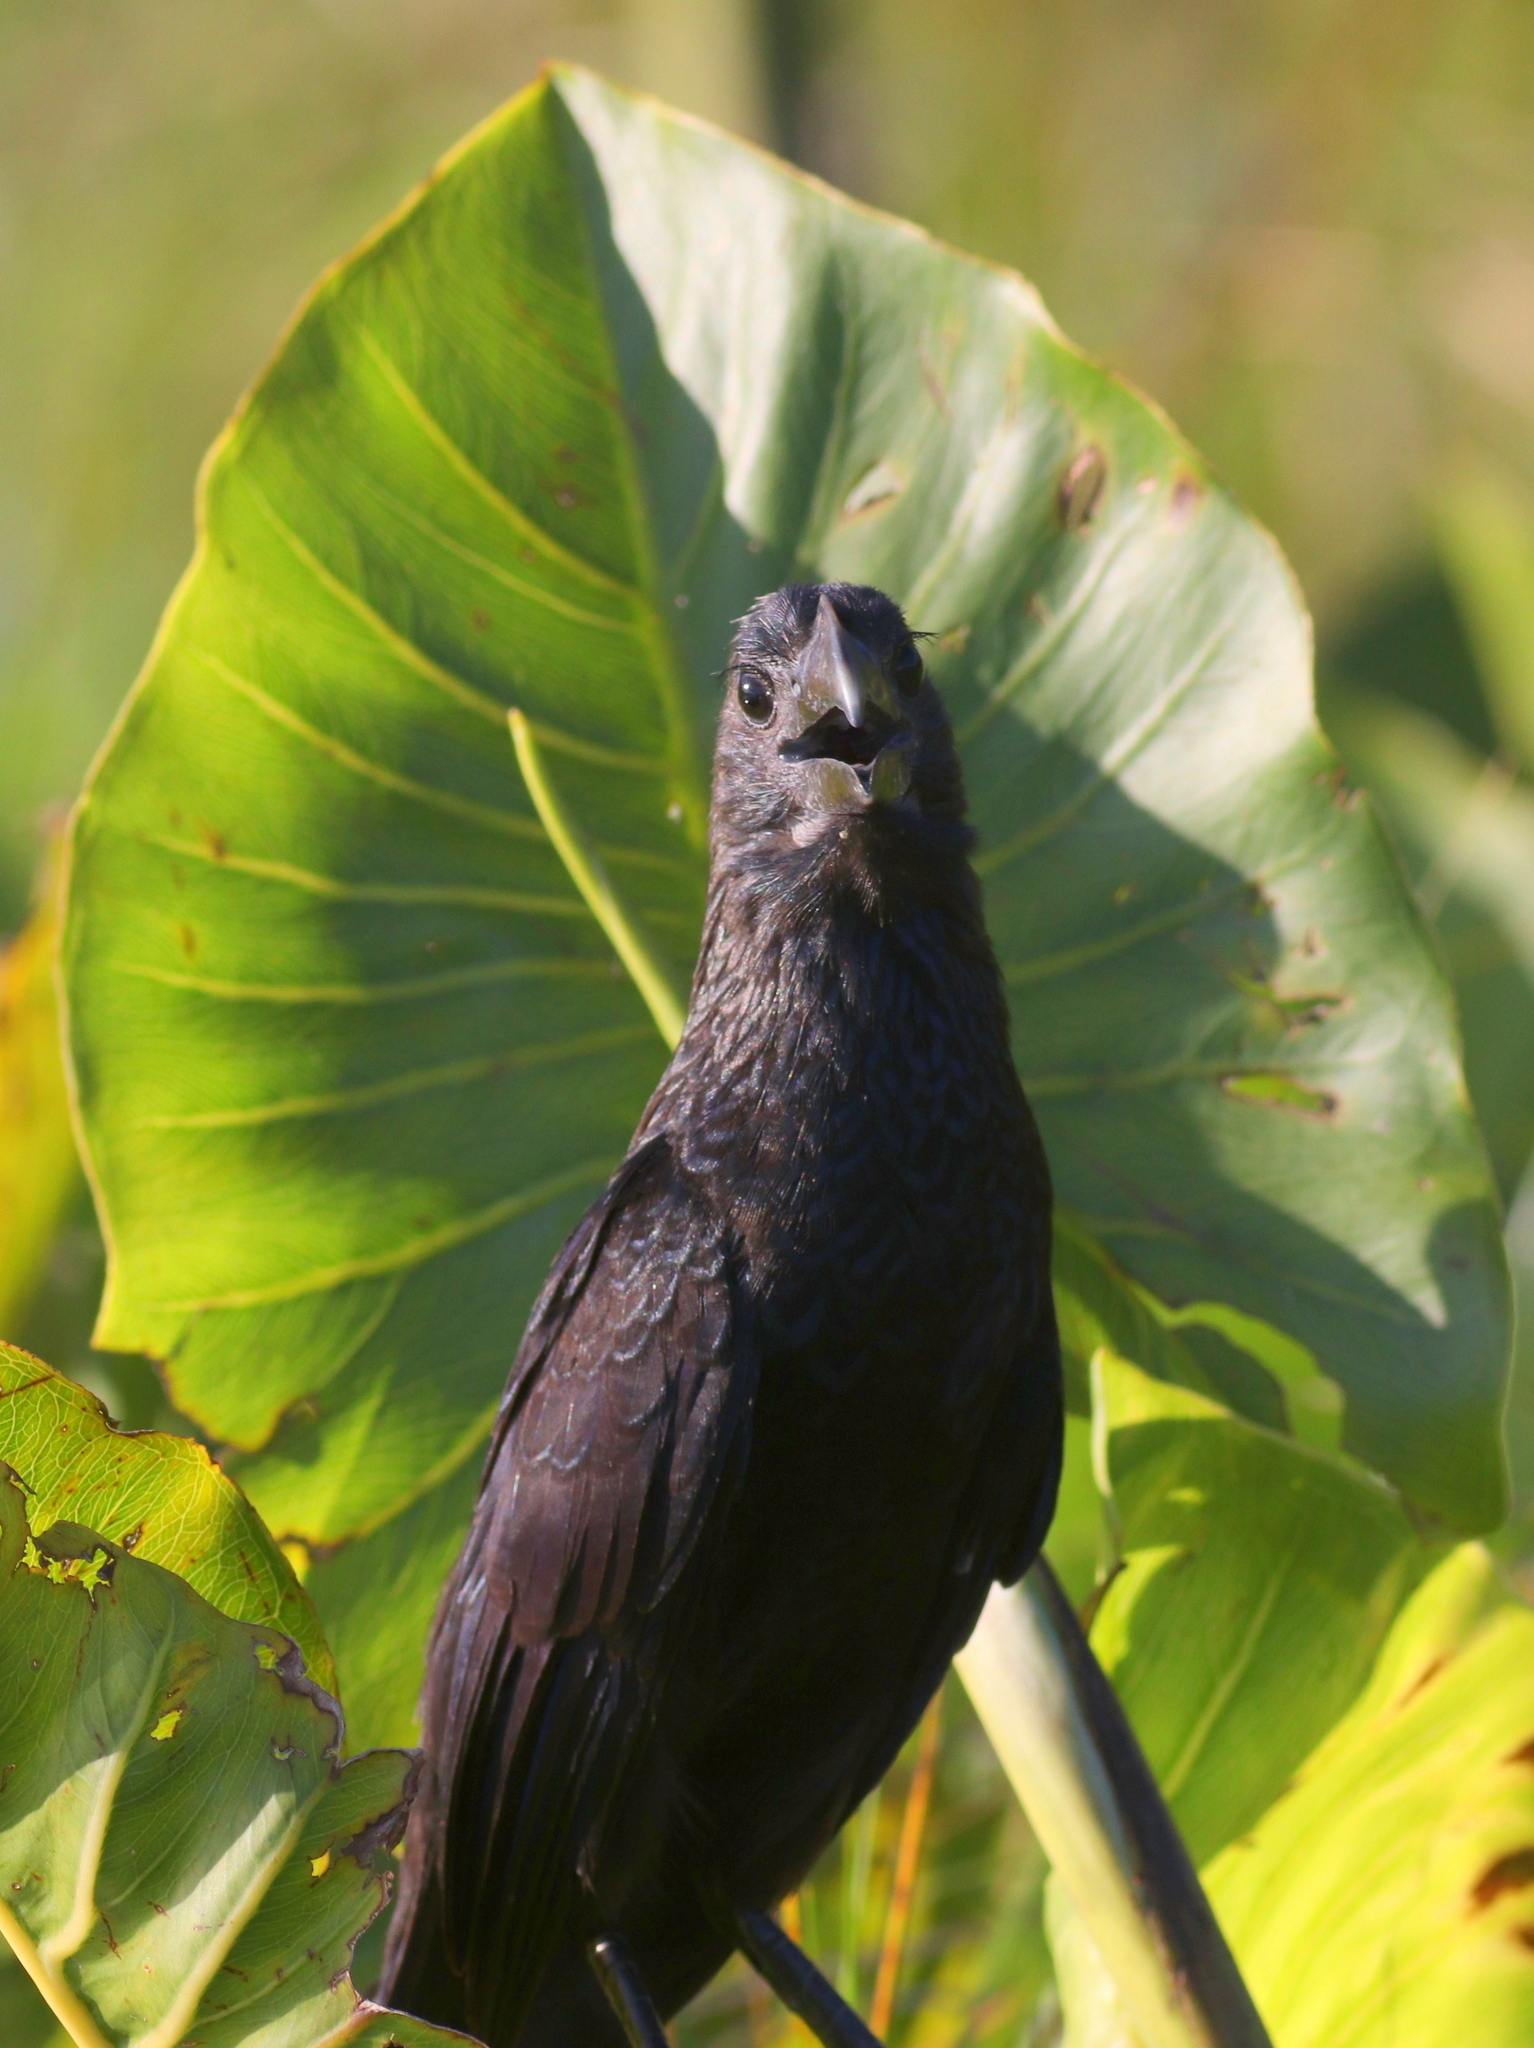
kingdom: Animalia
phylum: Chordata
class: Aves
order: Cuculiformes
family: Cuculidae
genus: Crotophaga
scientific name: Crotophaga ani
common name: Smooth-billed ani
